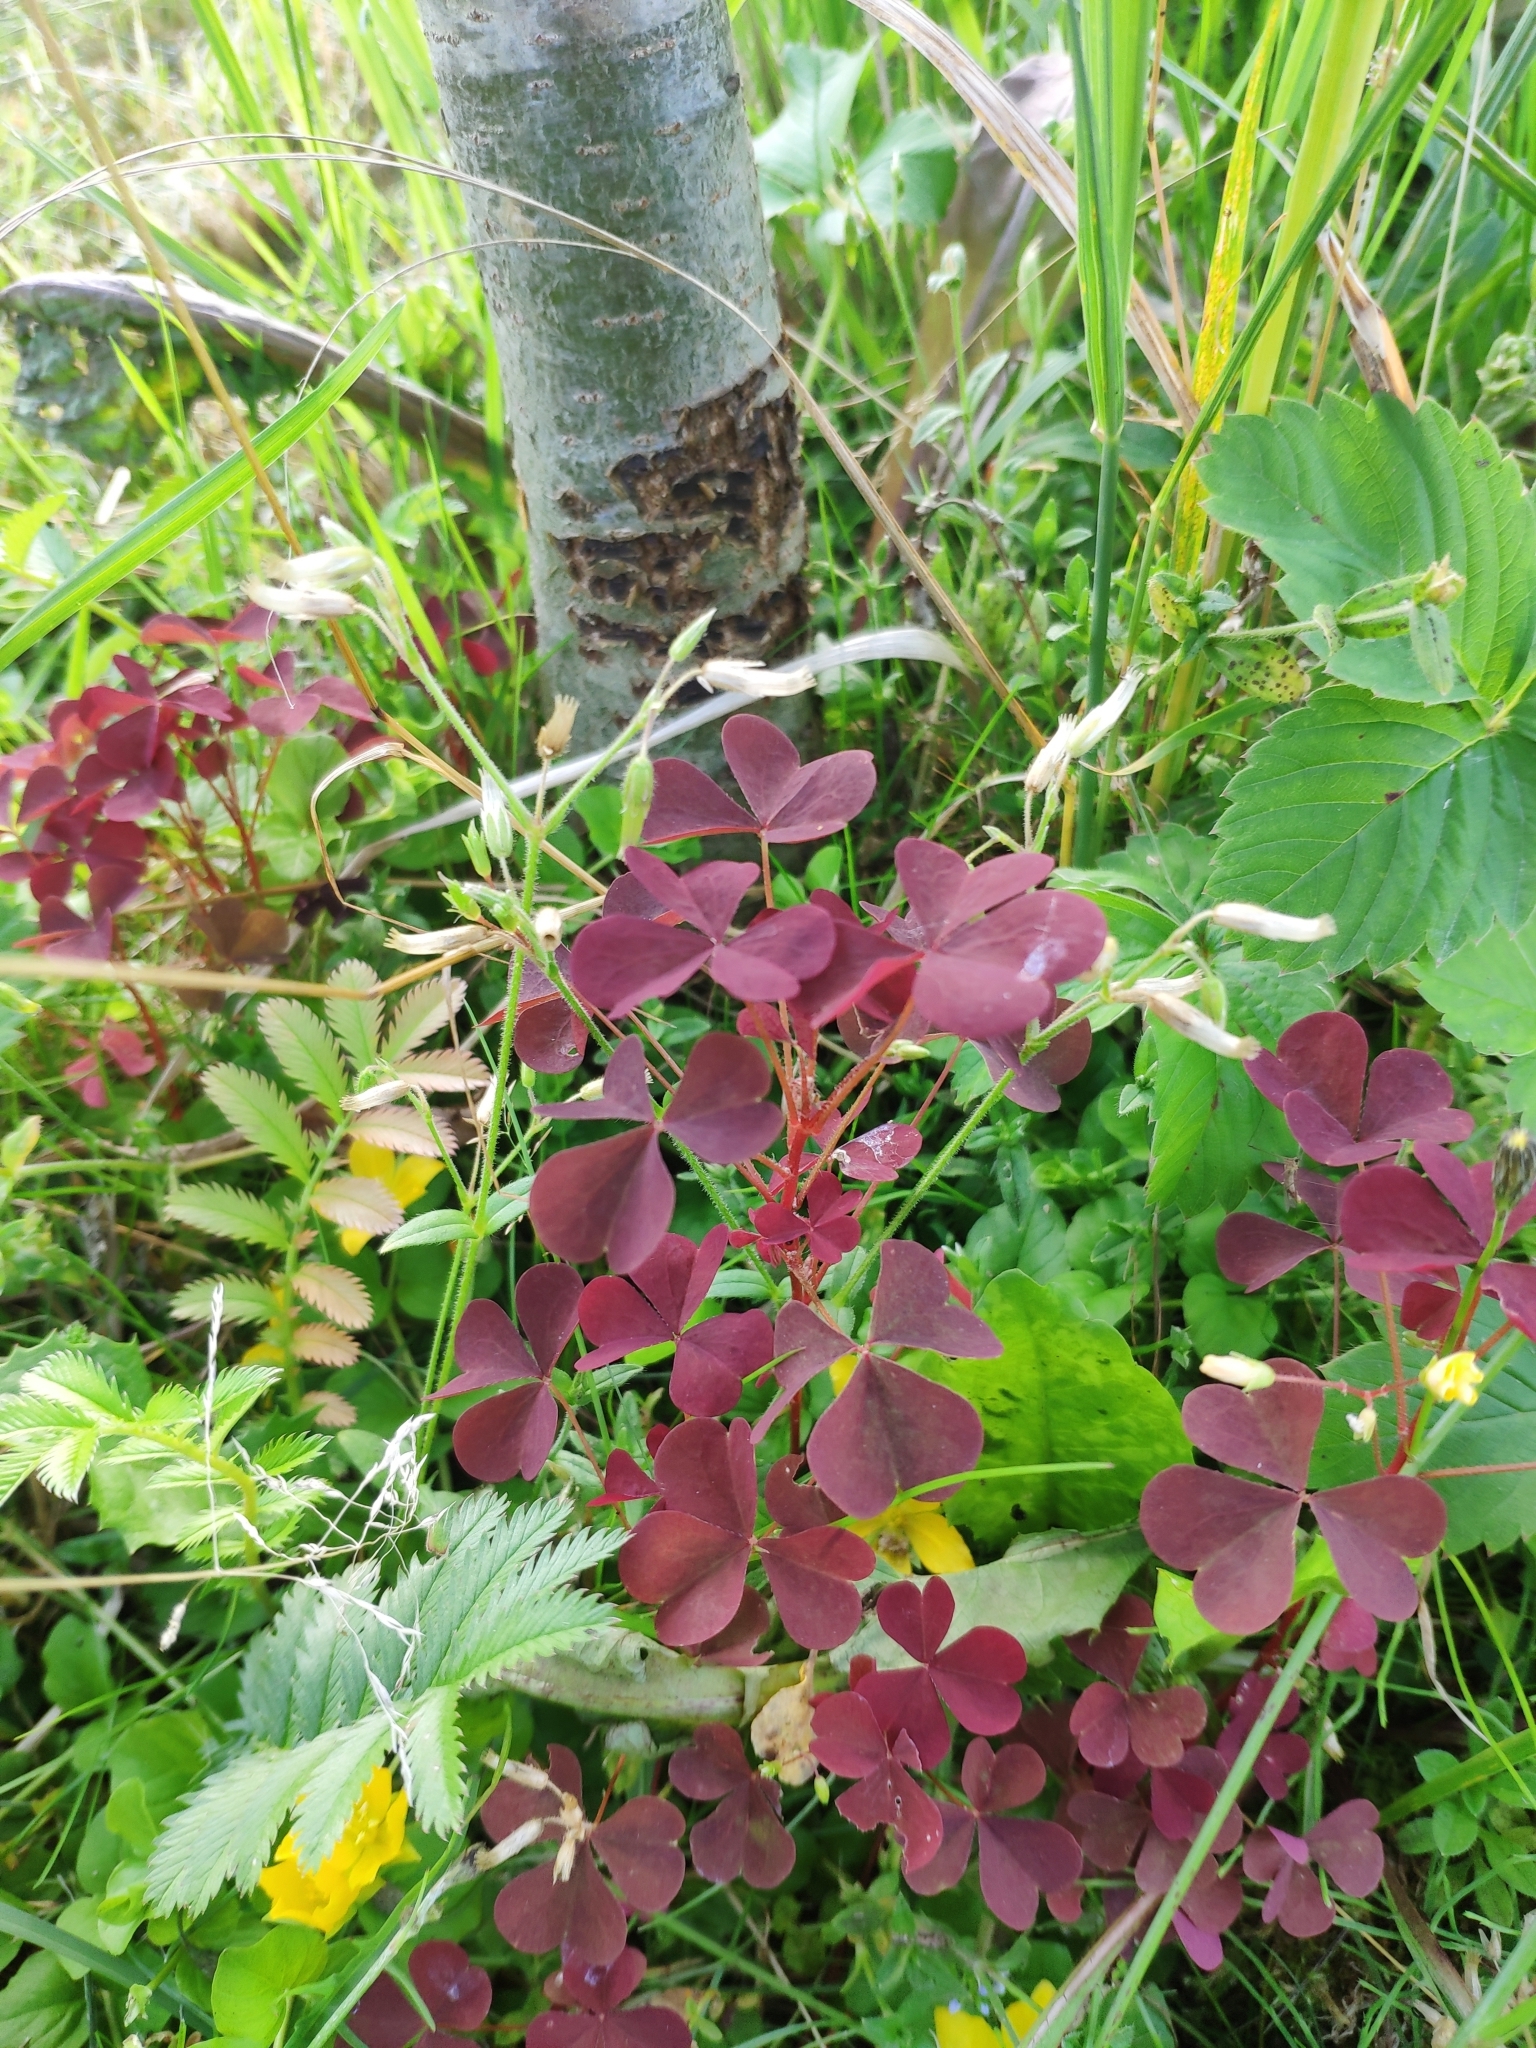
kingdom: Plantae
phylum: Tracheophyta
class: Magnoliopsida
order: Oxalidales
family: Oxalidaceae
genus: Oxalis
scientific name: Oxalis stricta
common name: Upright yellow-sorrel
